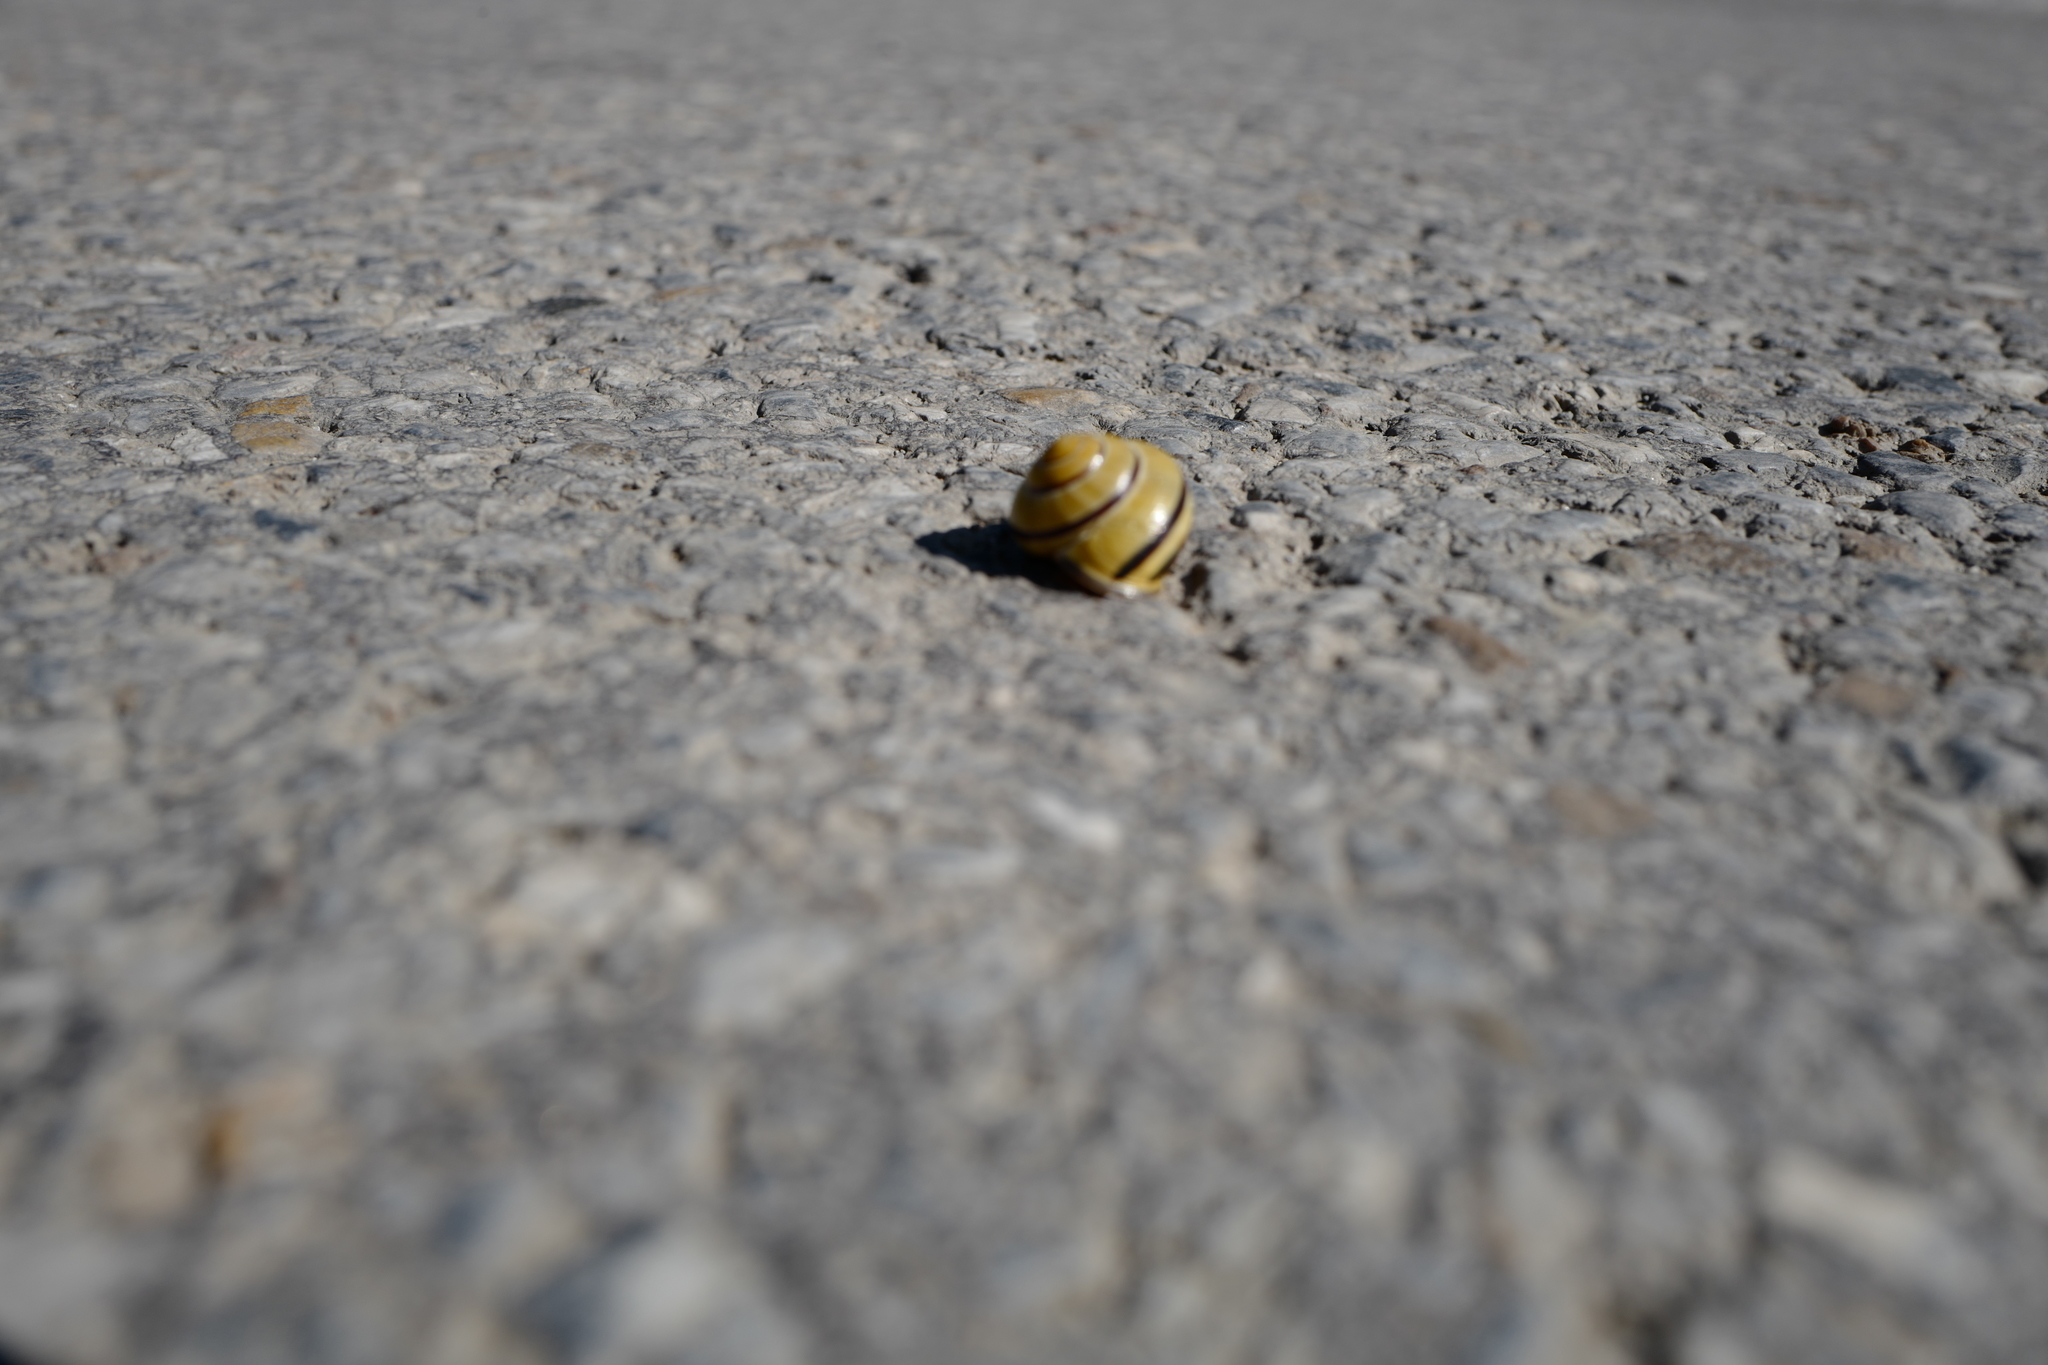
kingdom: Animalia
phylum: Mollusca
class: Gastropoda
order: Stylommatophora
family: Helicidae
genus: Cepaea
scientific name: Cepaea nemoralis
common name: Grovesnail
